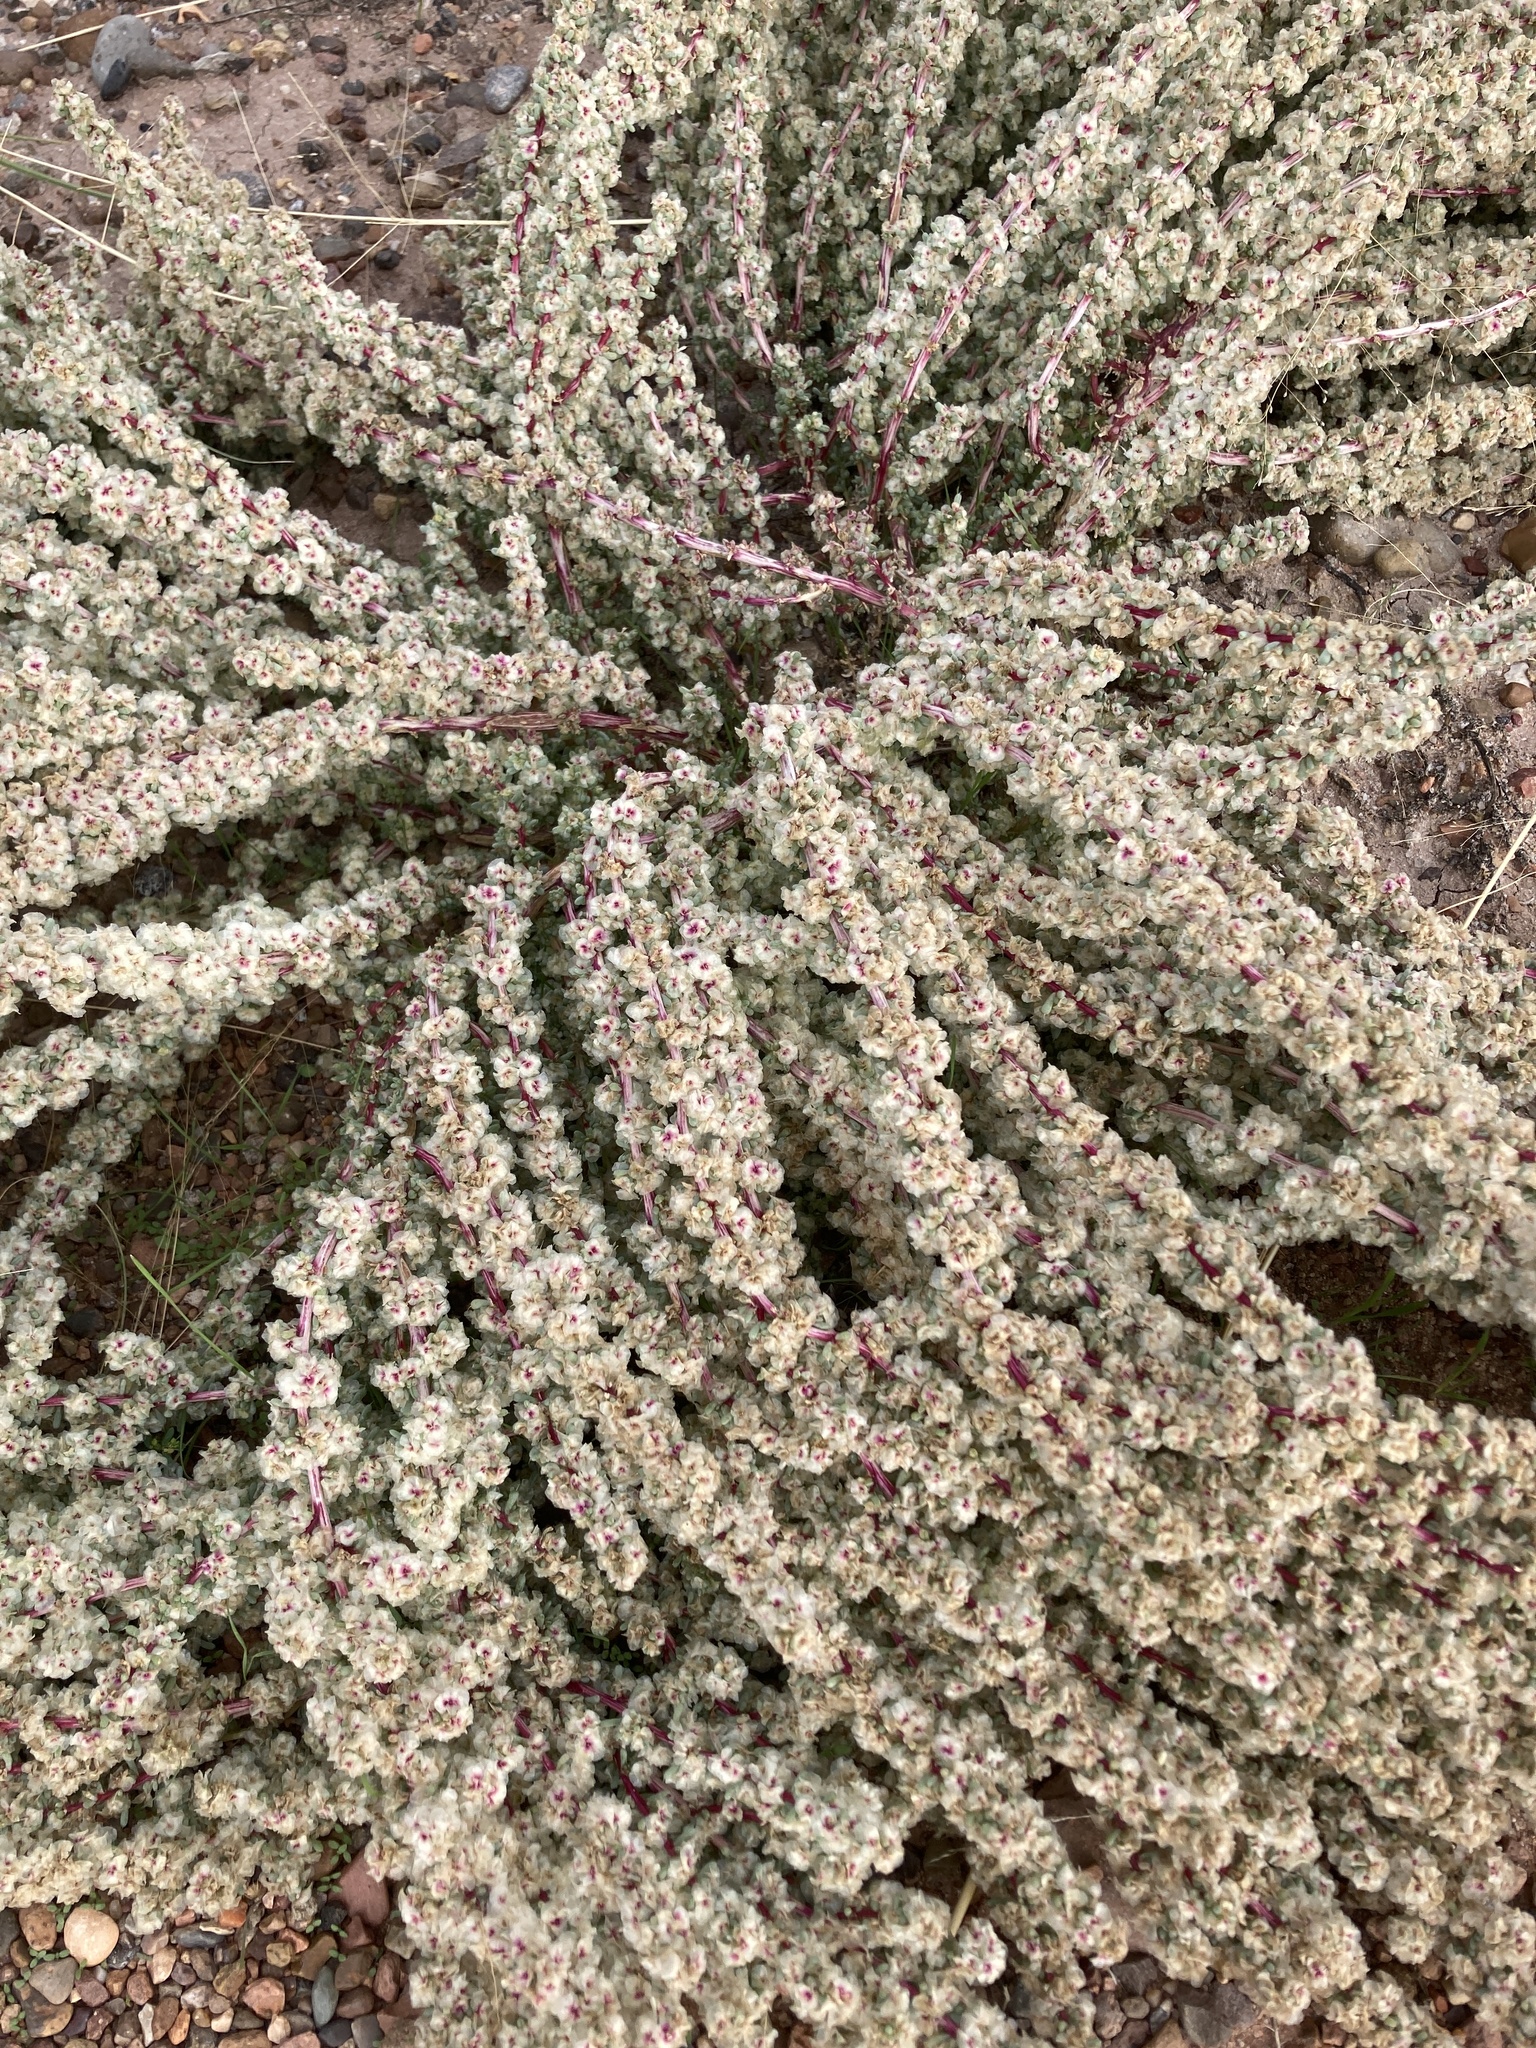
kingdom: Plantae
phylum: Tracheophyta
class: Magnoliopsida
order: Caryophyllales
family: Amaranthaceae
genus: Halogeton
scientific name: Halogeton glomeratus
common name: Saltlover
